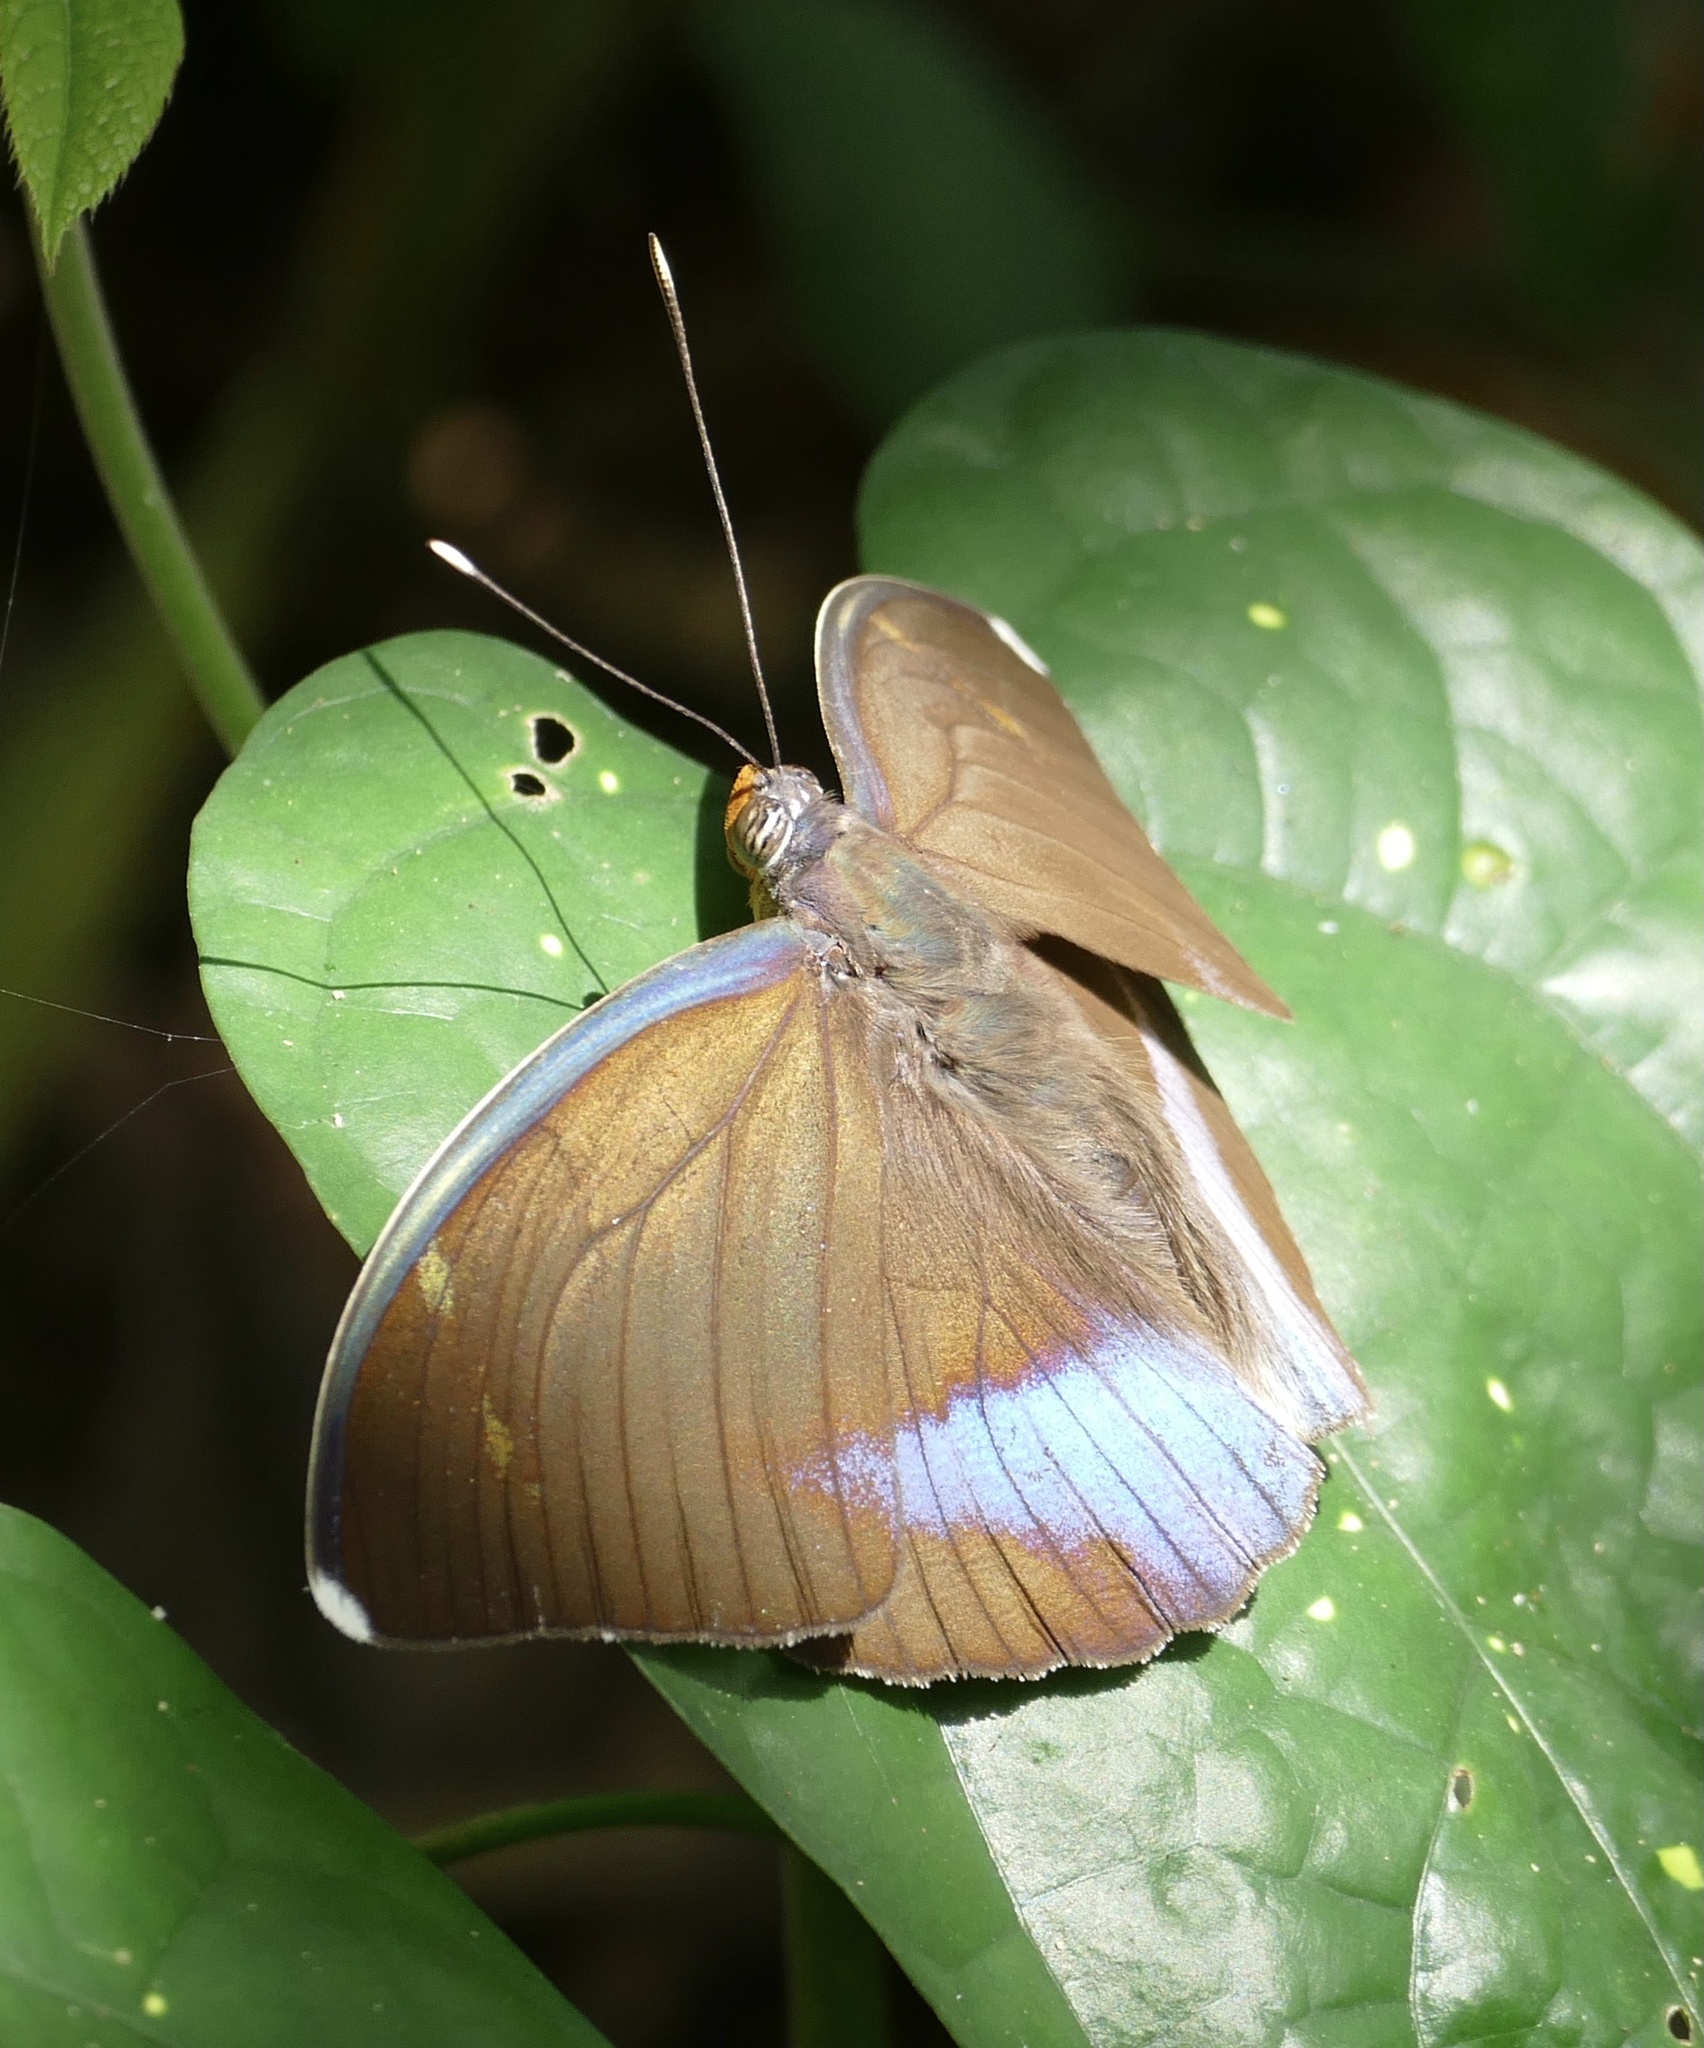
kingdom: Animalia
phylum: Arthropoda
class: Insecta
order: Lepidoptera
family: Nymphalidae
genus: Euphaedra
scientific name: Euphaedra harpalyce
